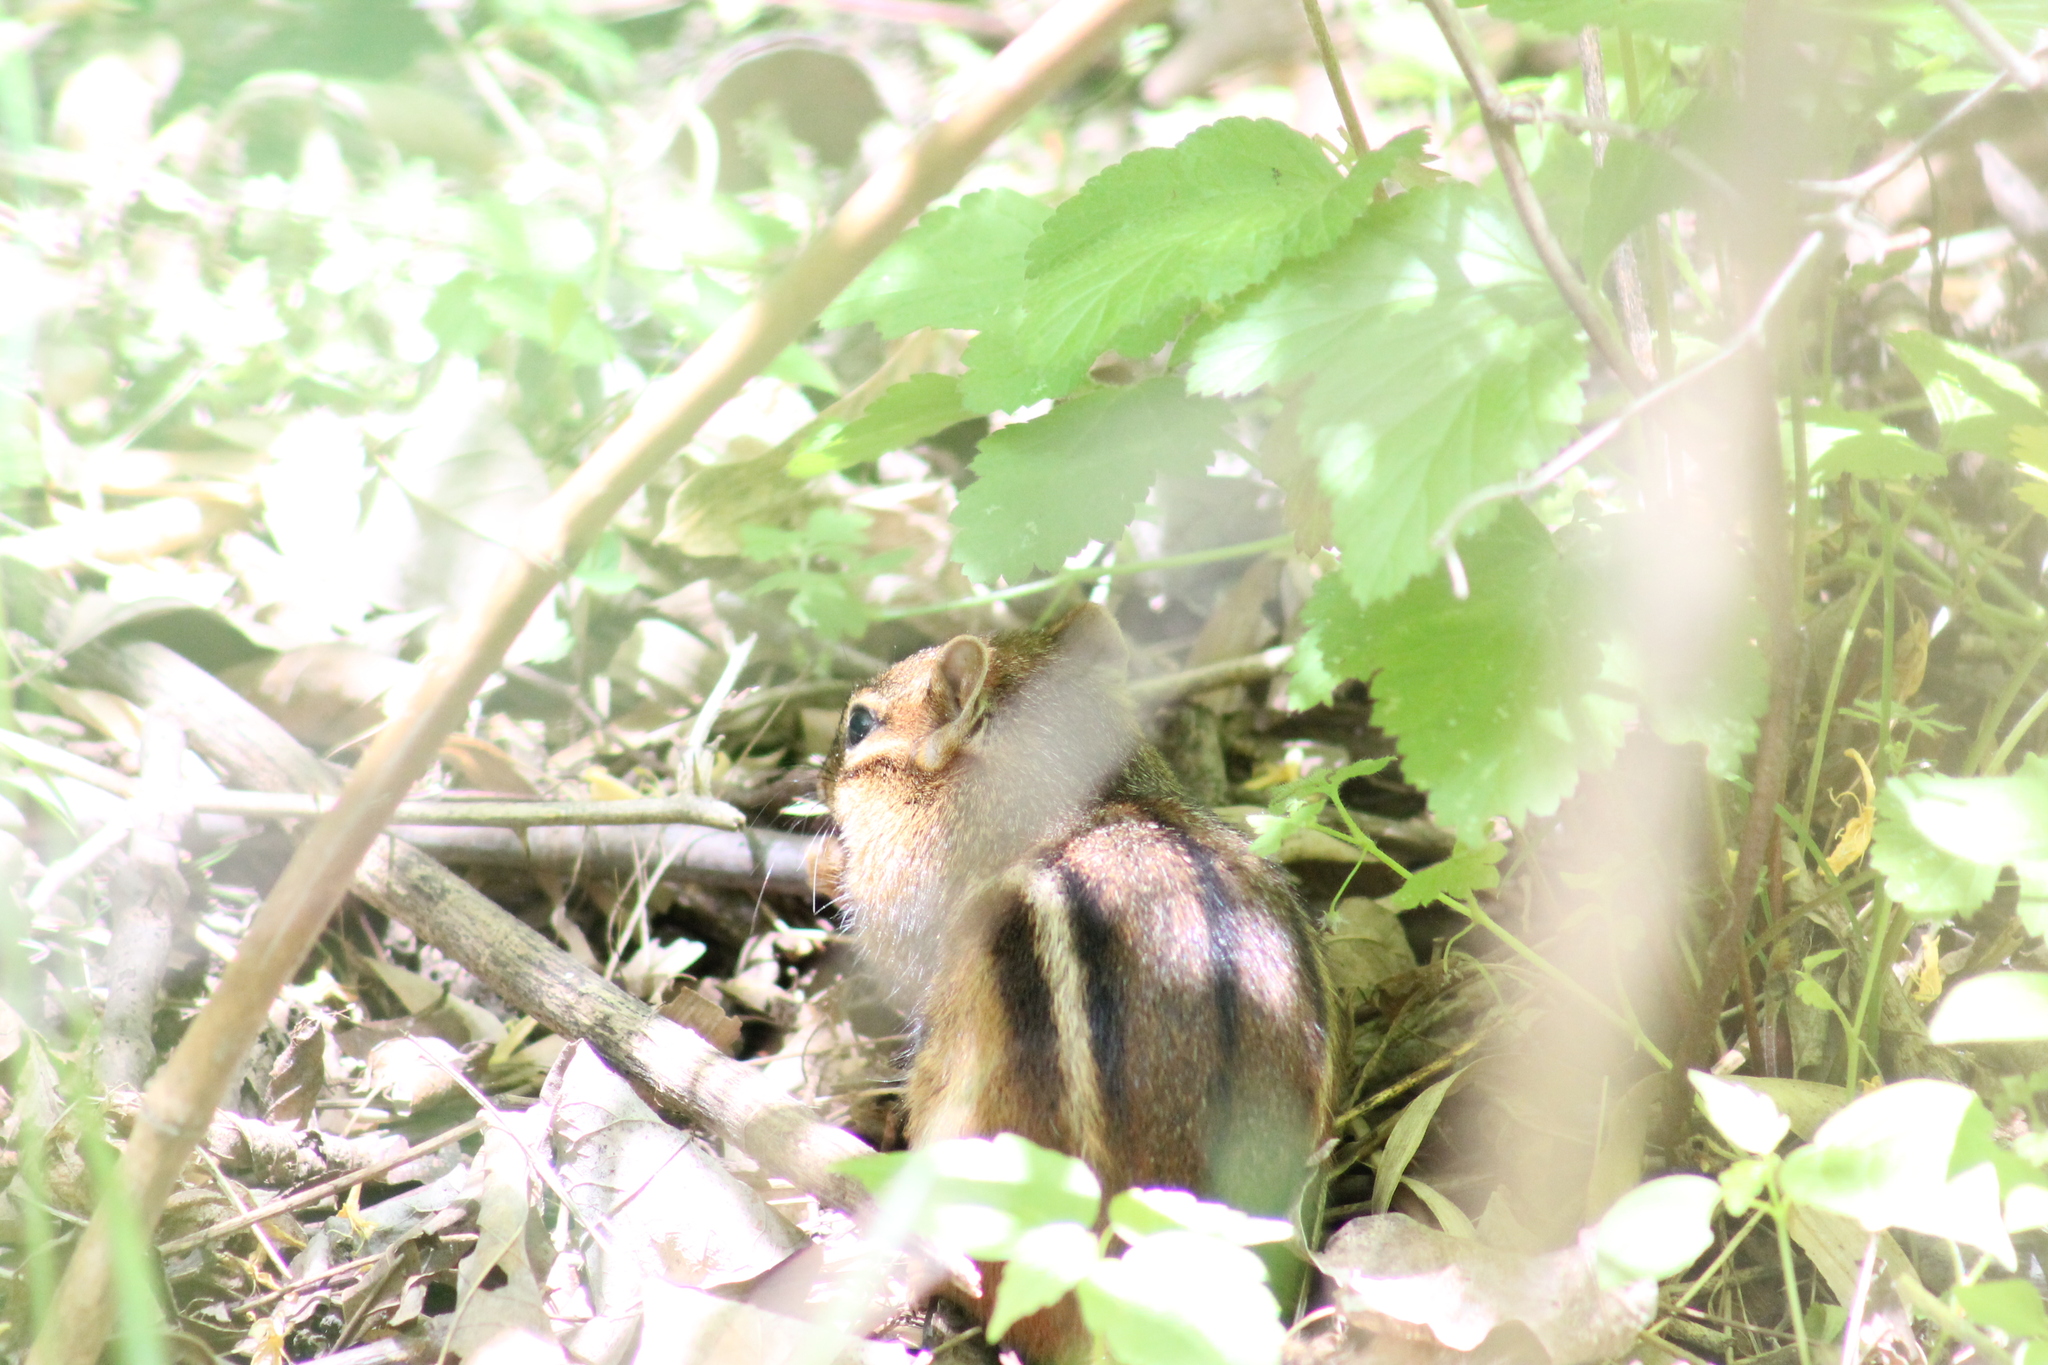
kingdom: Animalia
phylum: Chordata
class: Mammalia
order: Rodentia
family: Sciuridae
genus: Tamias
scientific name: Tamias striatus
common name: Eastern chipmunk
